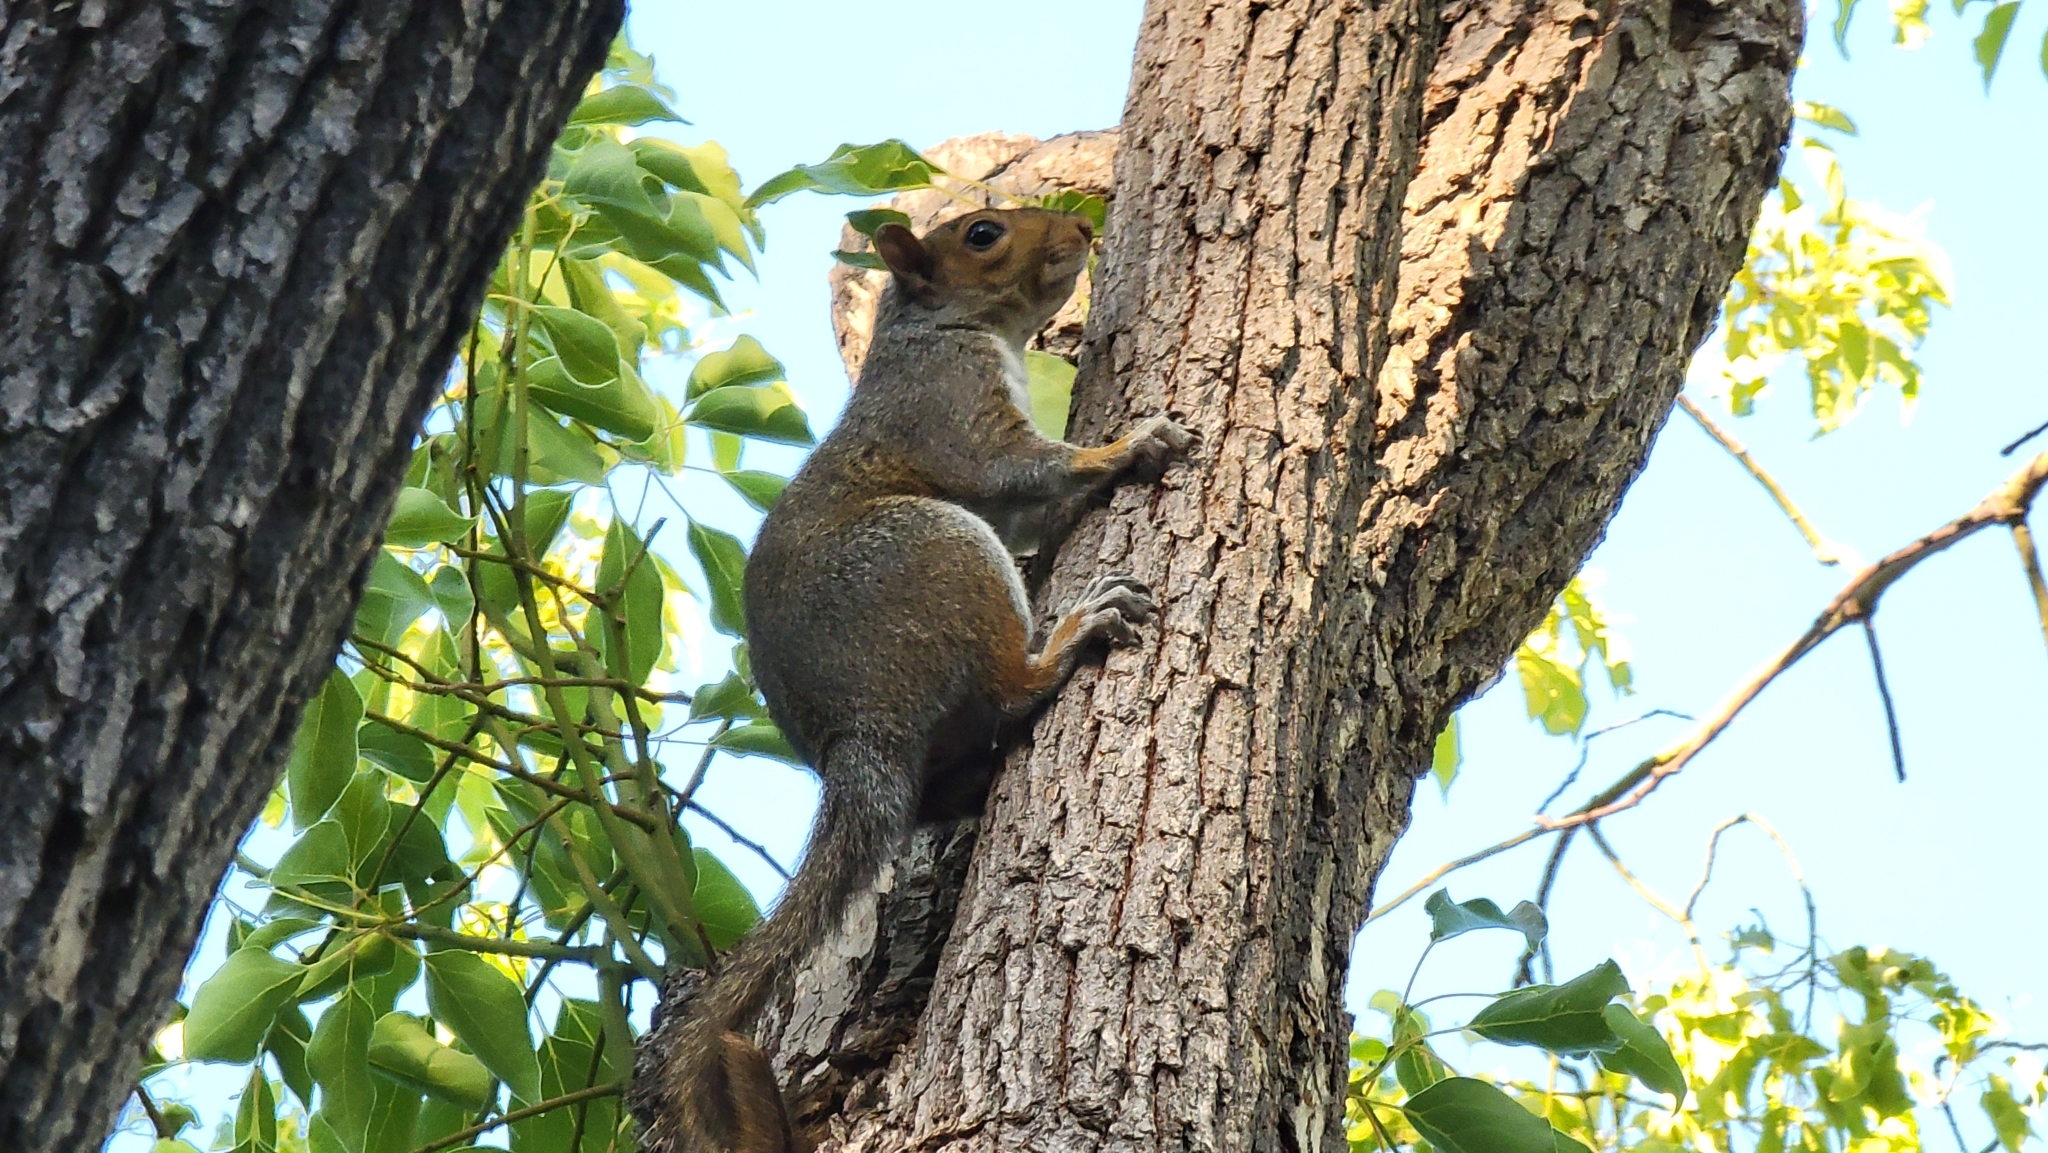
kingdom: Animalia
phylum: Chordata
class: Mammalia
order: Rodentia
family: Sciuridae
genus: Sciurus
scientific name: Sciurus carolinensis
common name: Eastern gray squirrel
